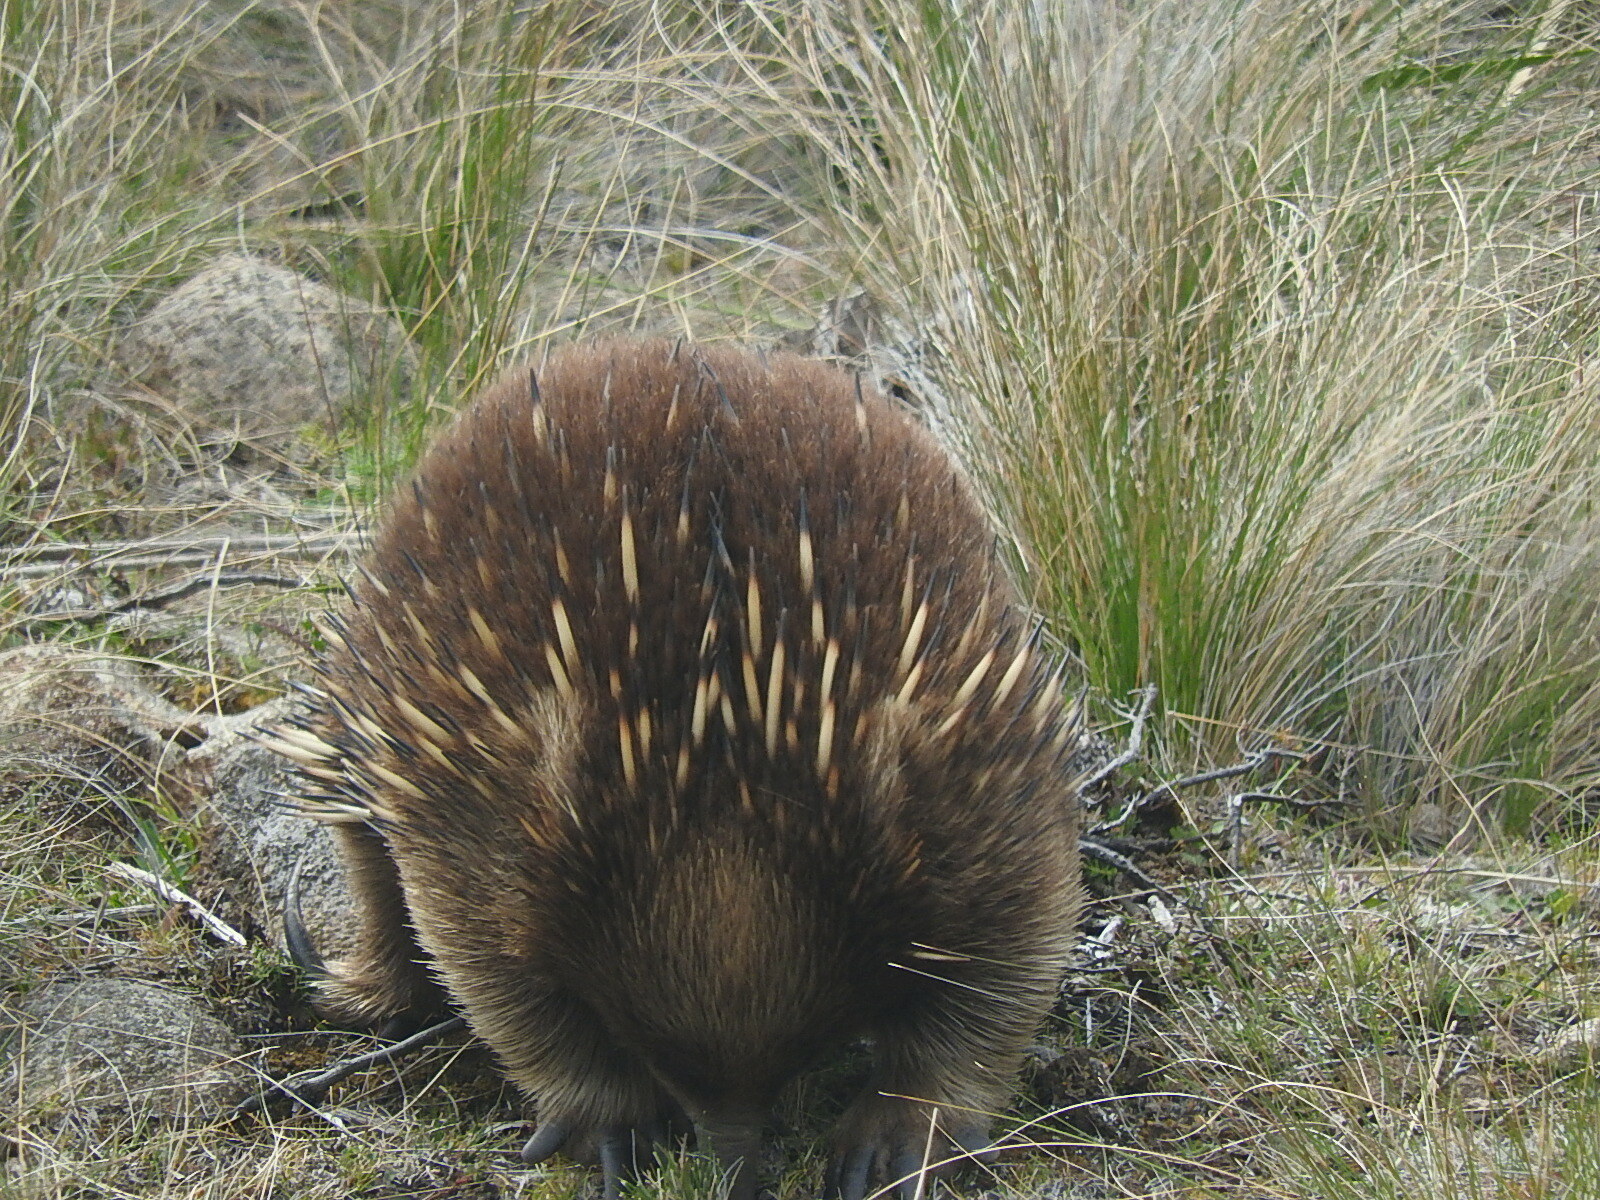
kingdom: Animalia
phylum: Chordata
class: Mammalia
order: Monotremata
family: Tachyglossidae
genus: Tachyglossus
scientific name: Tachyglossus aculeatus
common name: Short-beaked echidna
